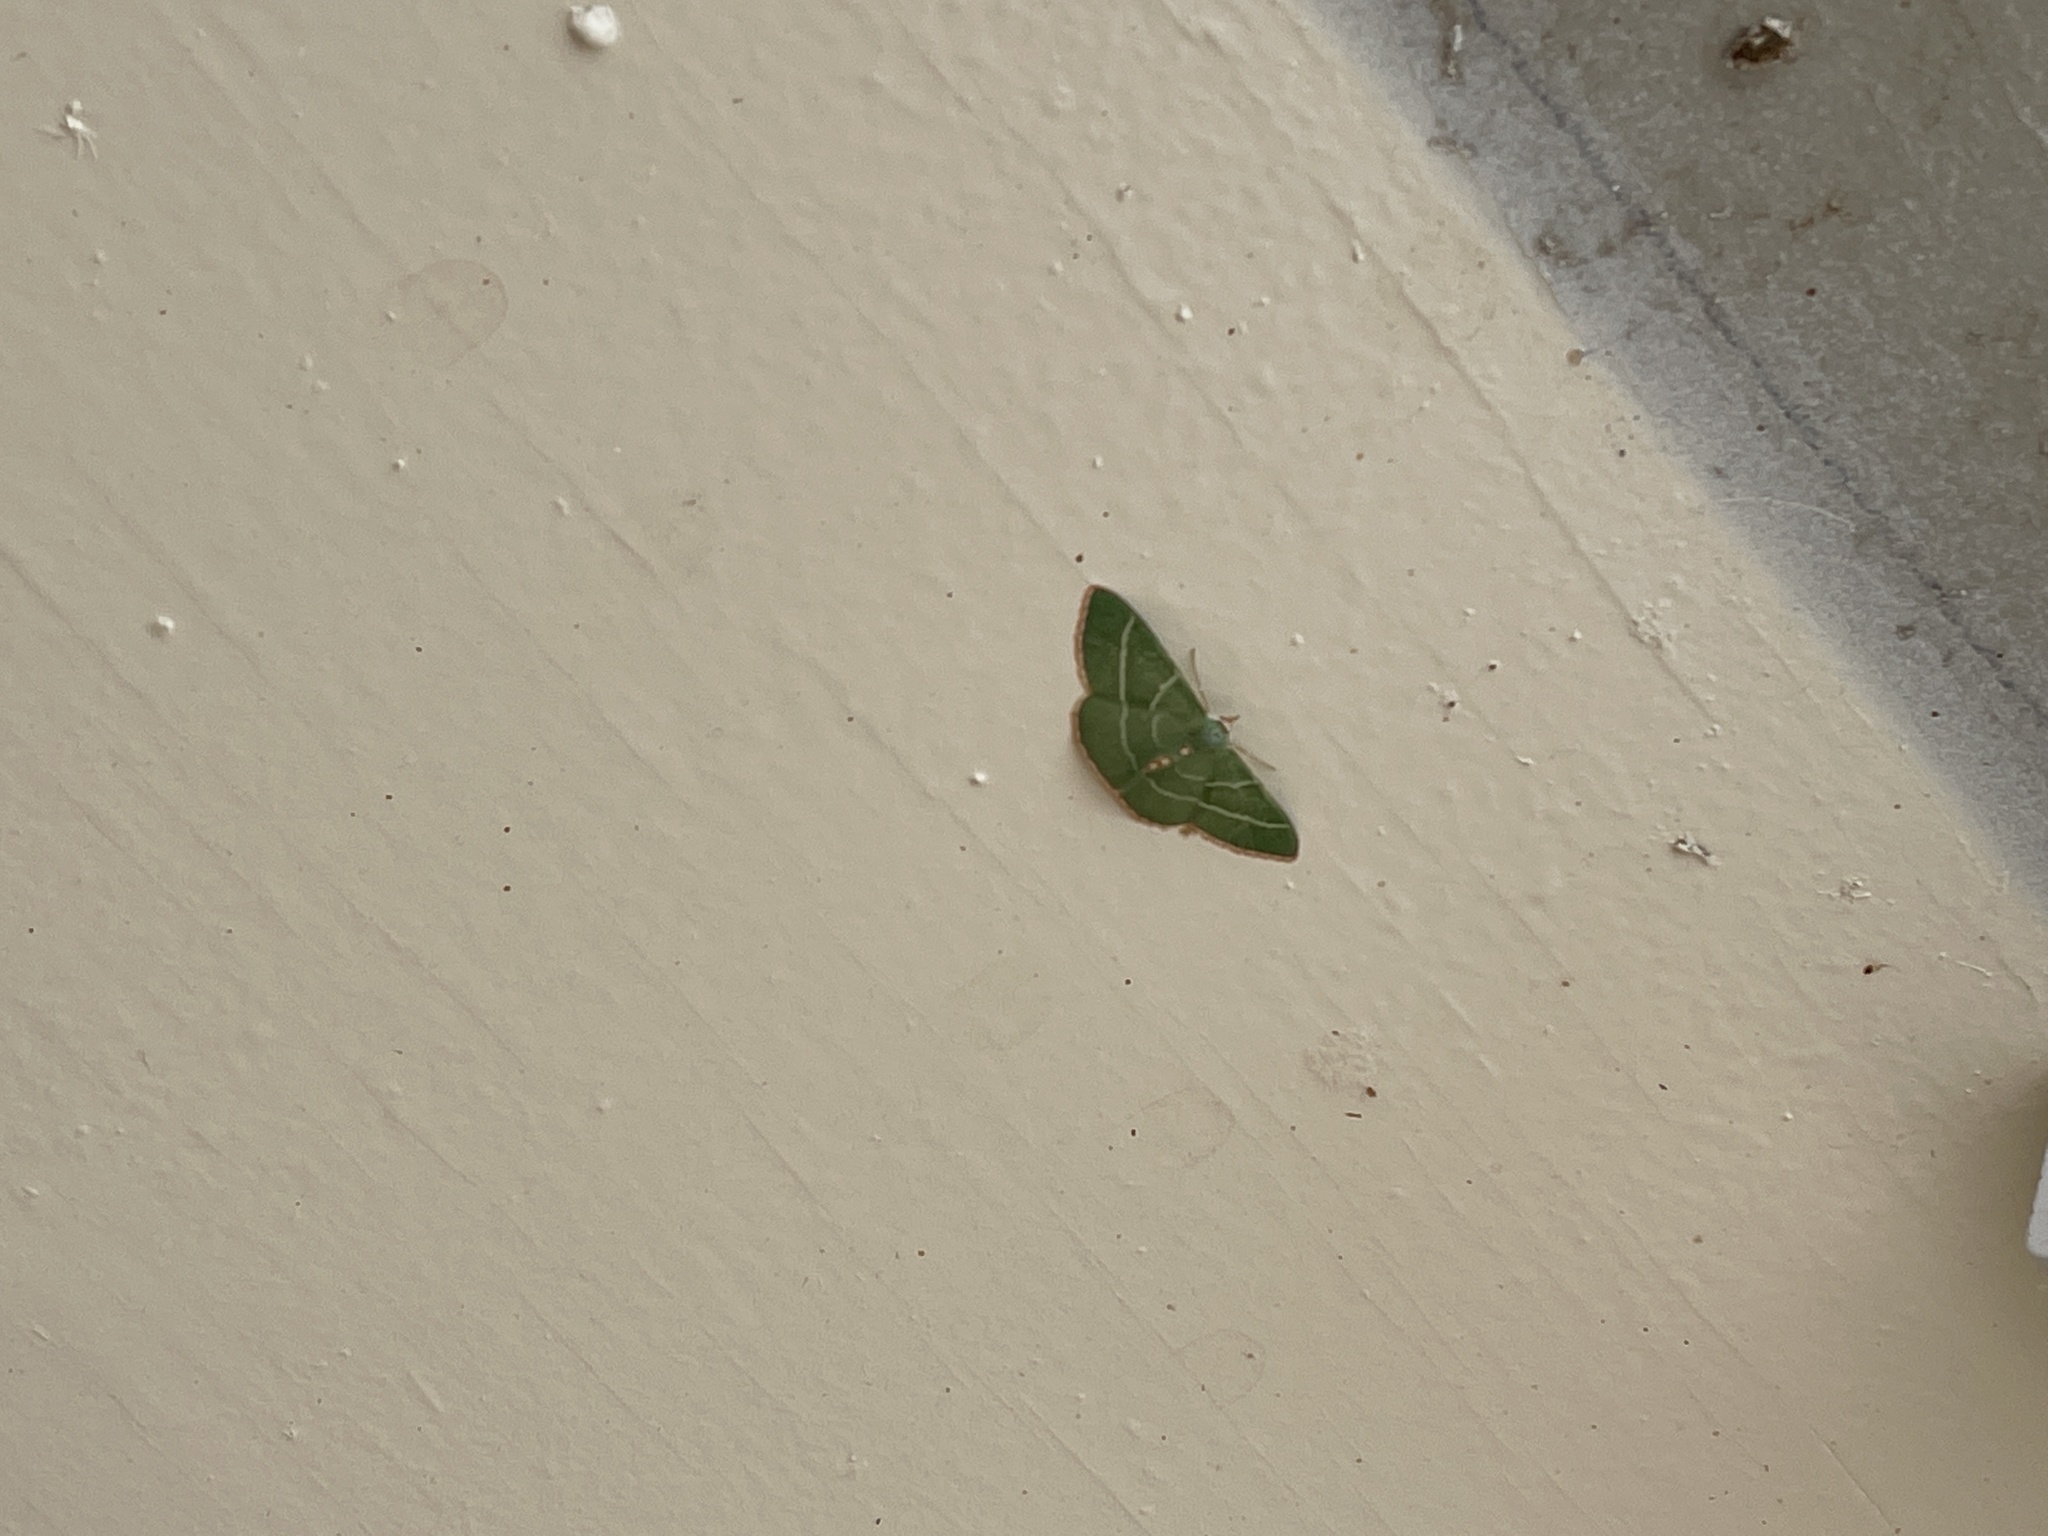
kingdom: Animalia
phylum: Arthropoda
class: Insecta
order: Lepidoptera
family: Geometridae
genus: Nemoria
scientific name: Nemoria obliqua
